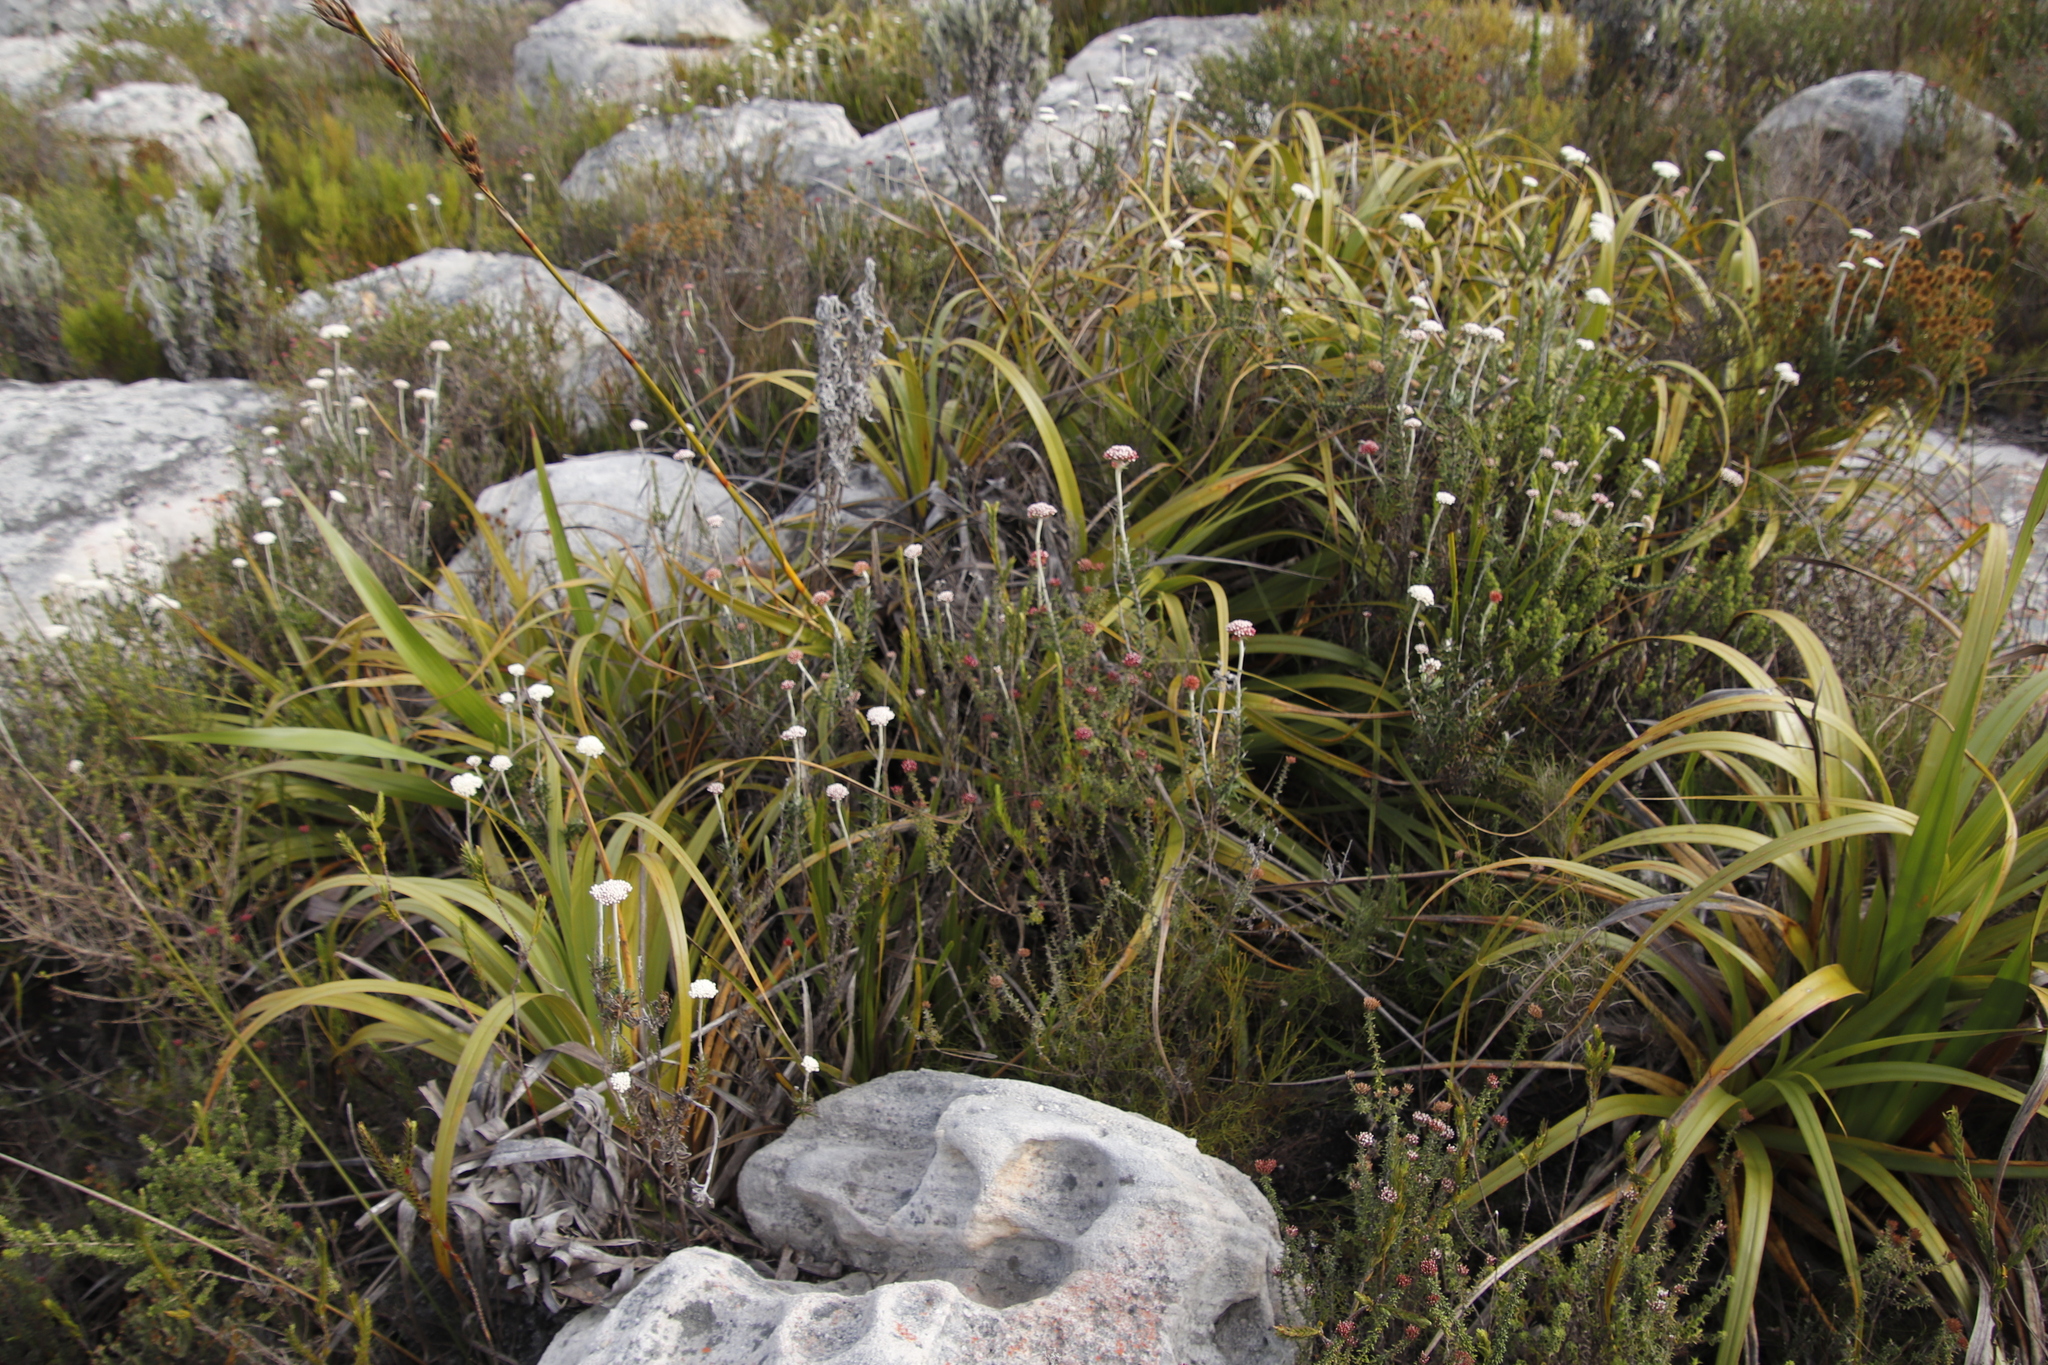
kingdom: Plantae
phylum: Tracheophyta
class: Magnoliopsida
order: Asterales
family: Asteraceae
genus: Anaxeton
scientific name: Anaxeton arborescens
